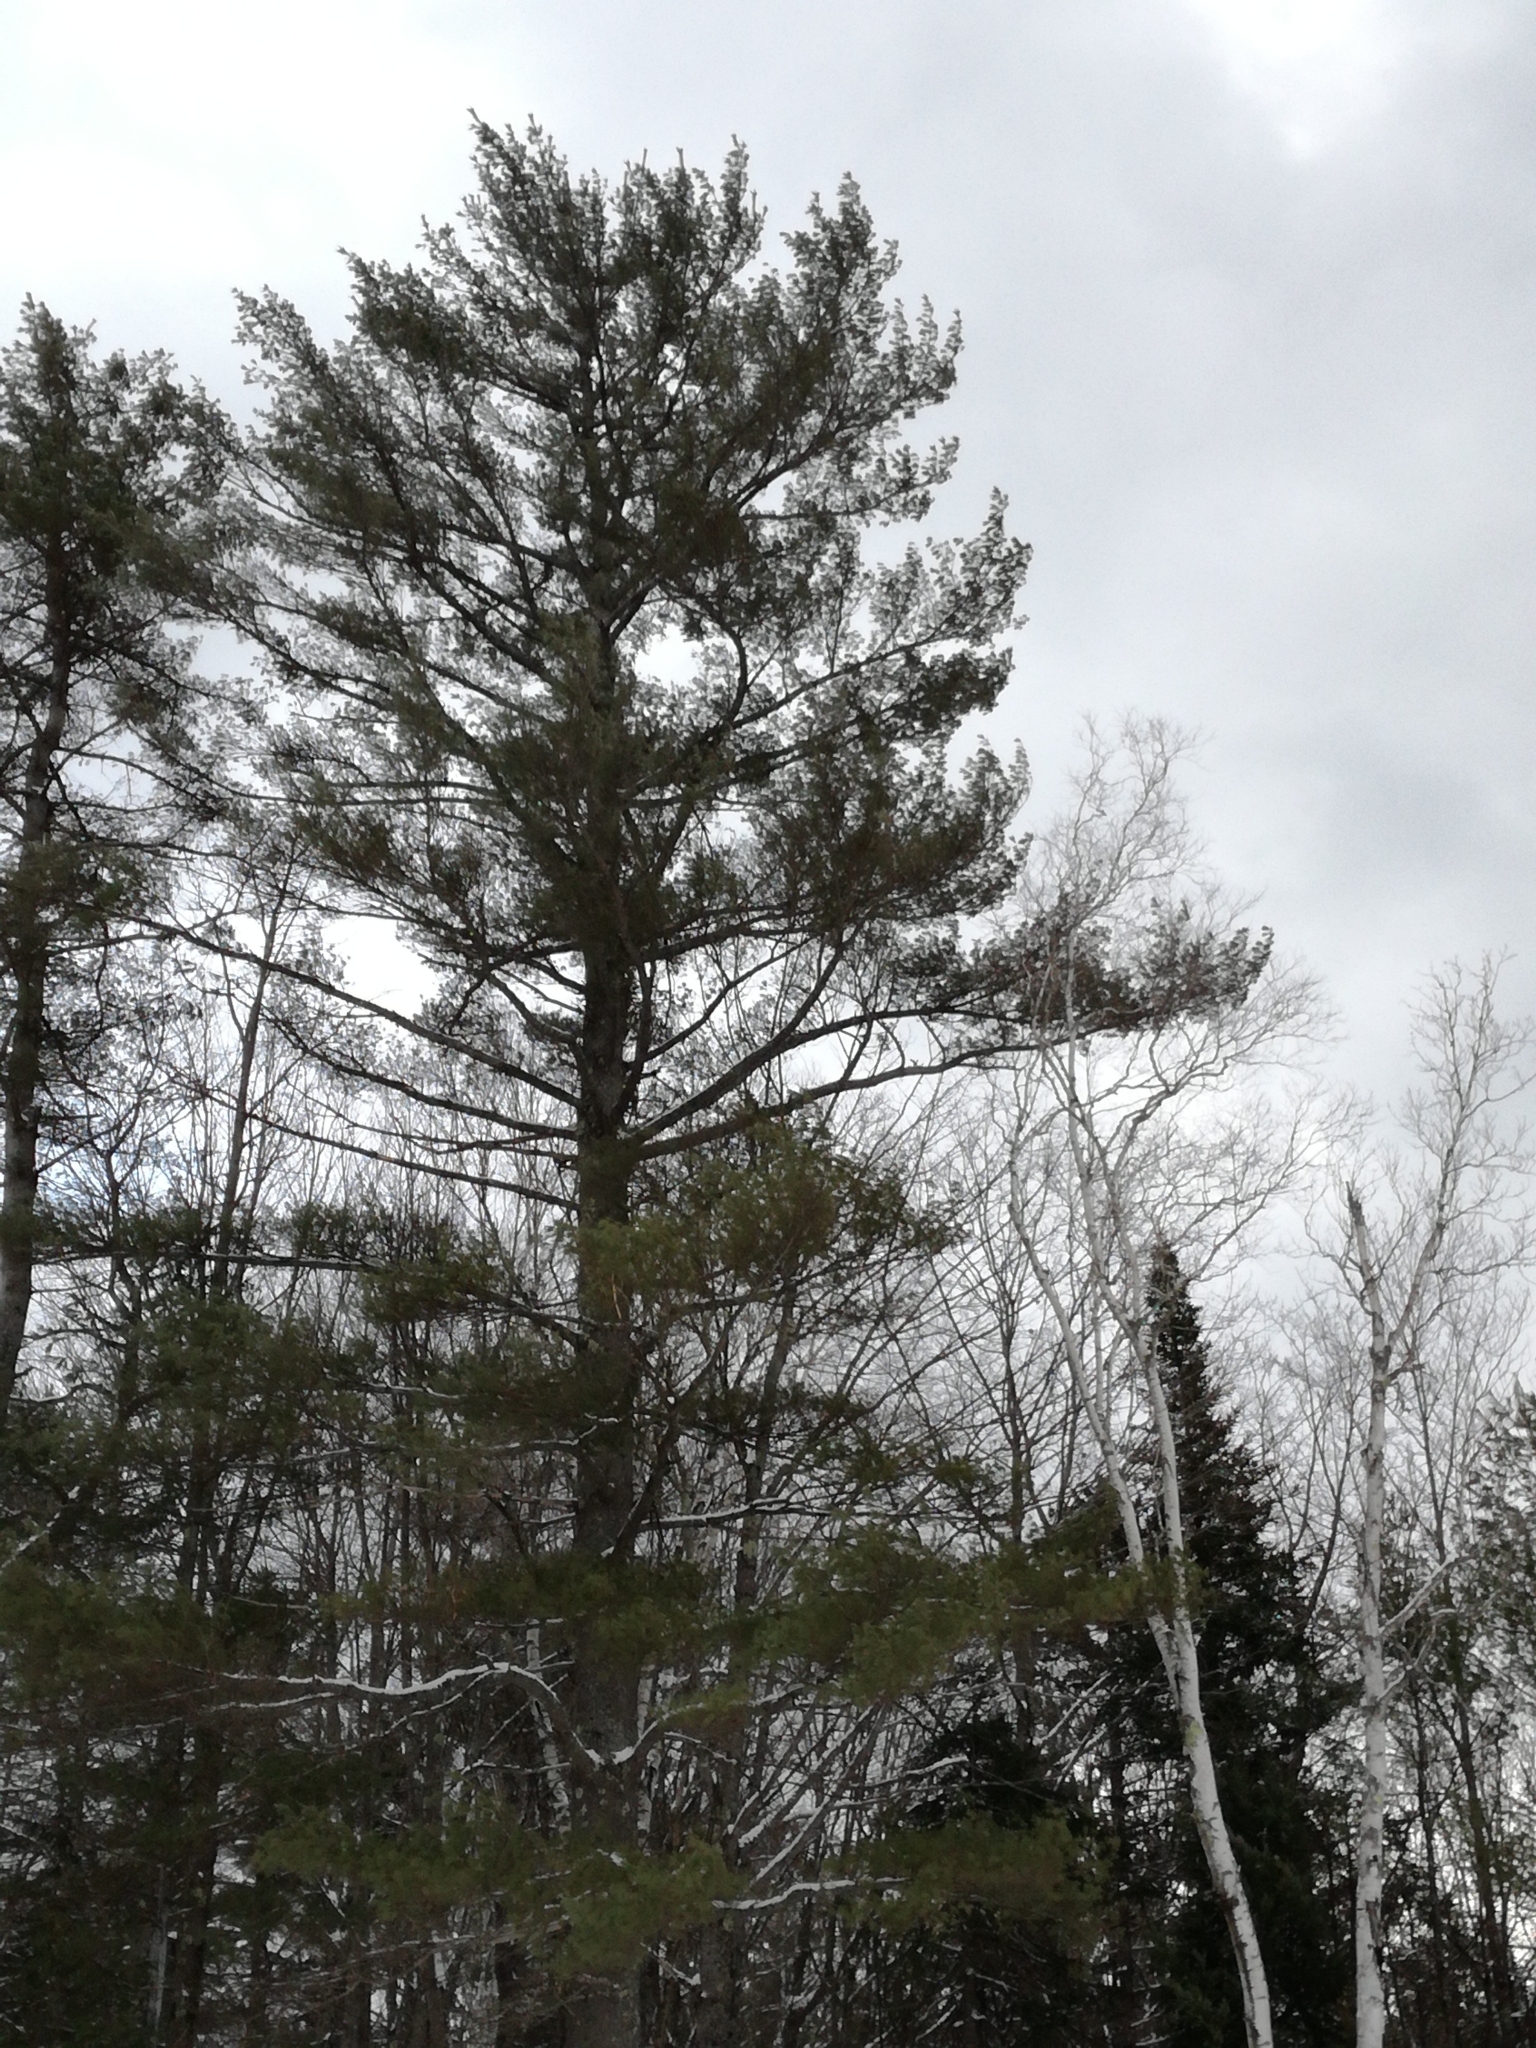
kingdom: Plantae
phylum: Tracheophyta
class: Pinopsida
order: Pinales
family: Pinaceae
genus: Pinus
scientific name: Pinus strobus
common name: Weymouth pine
